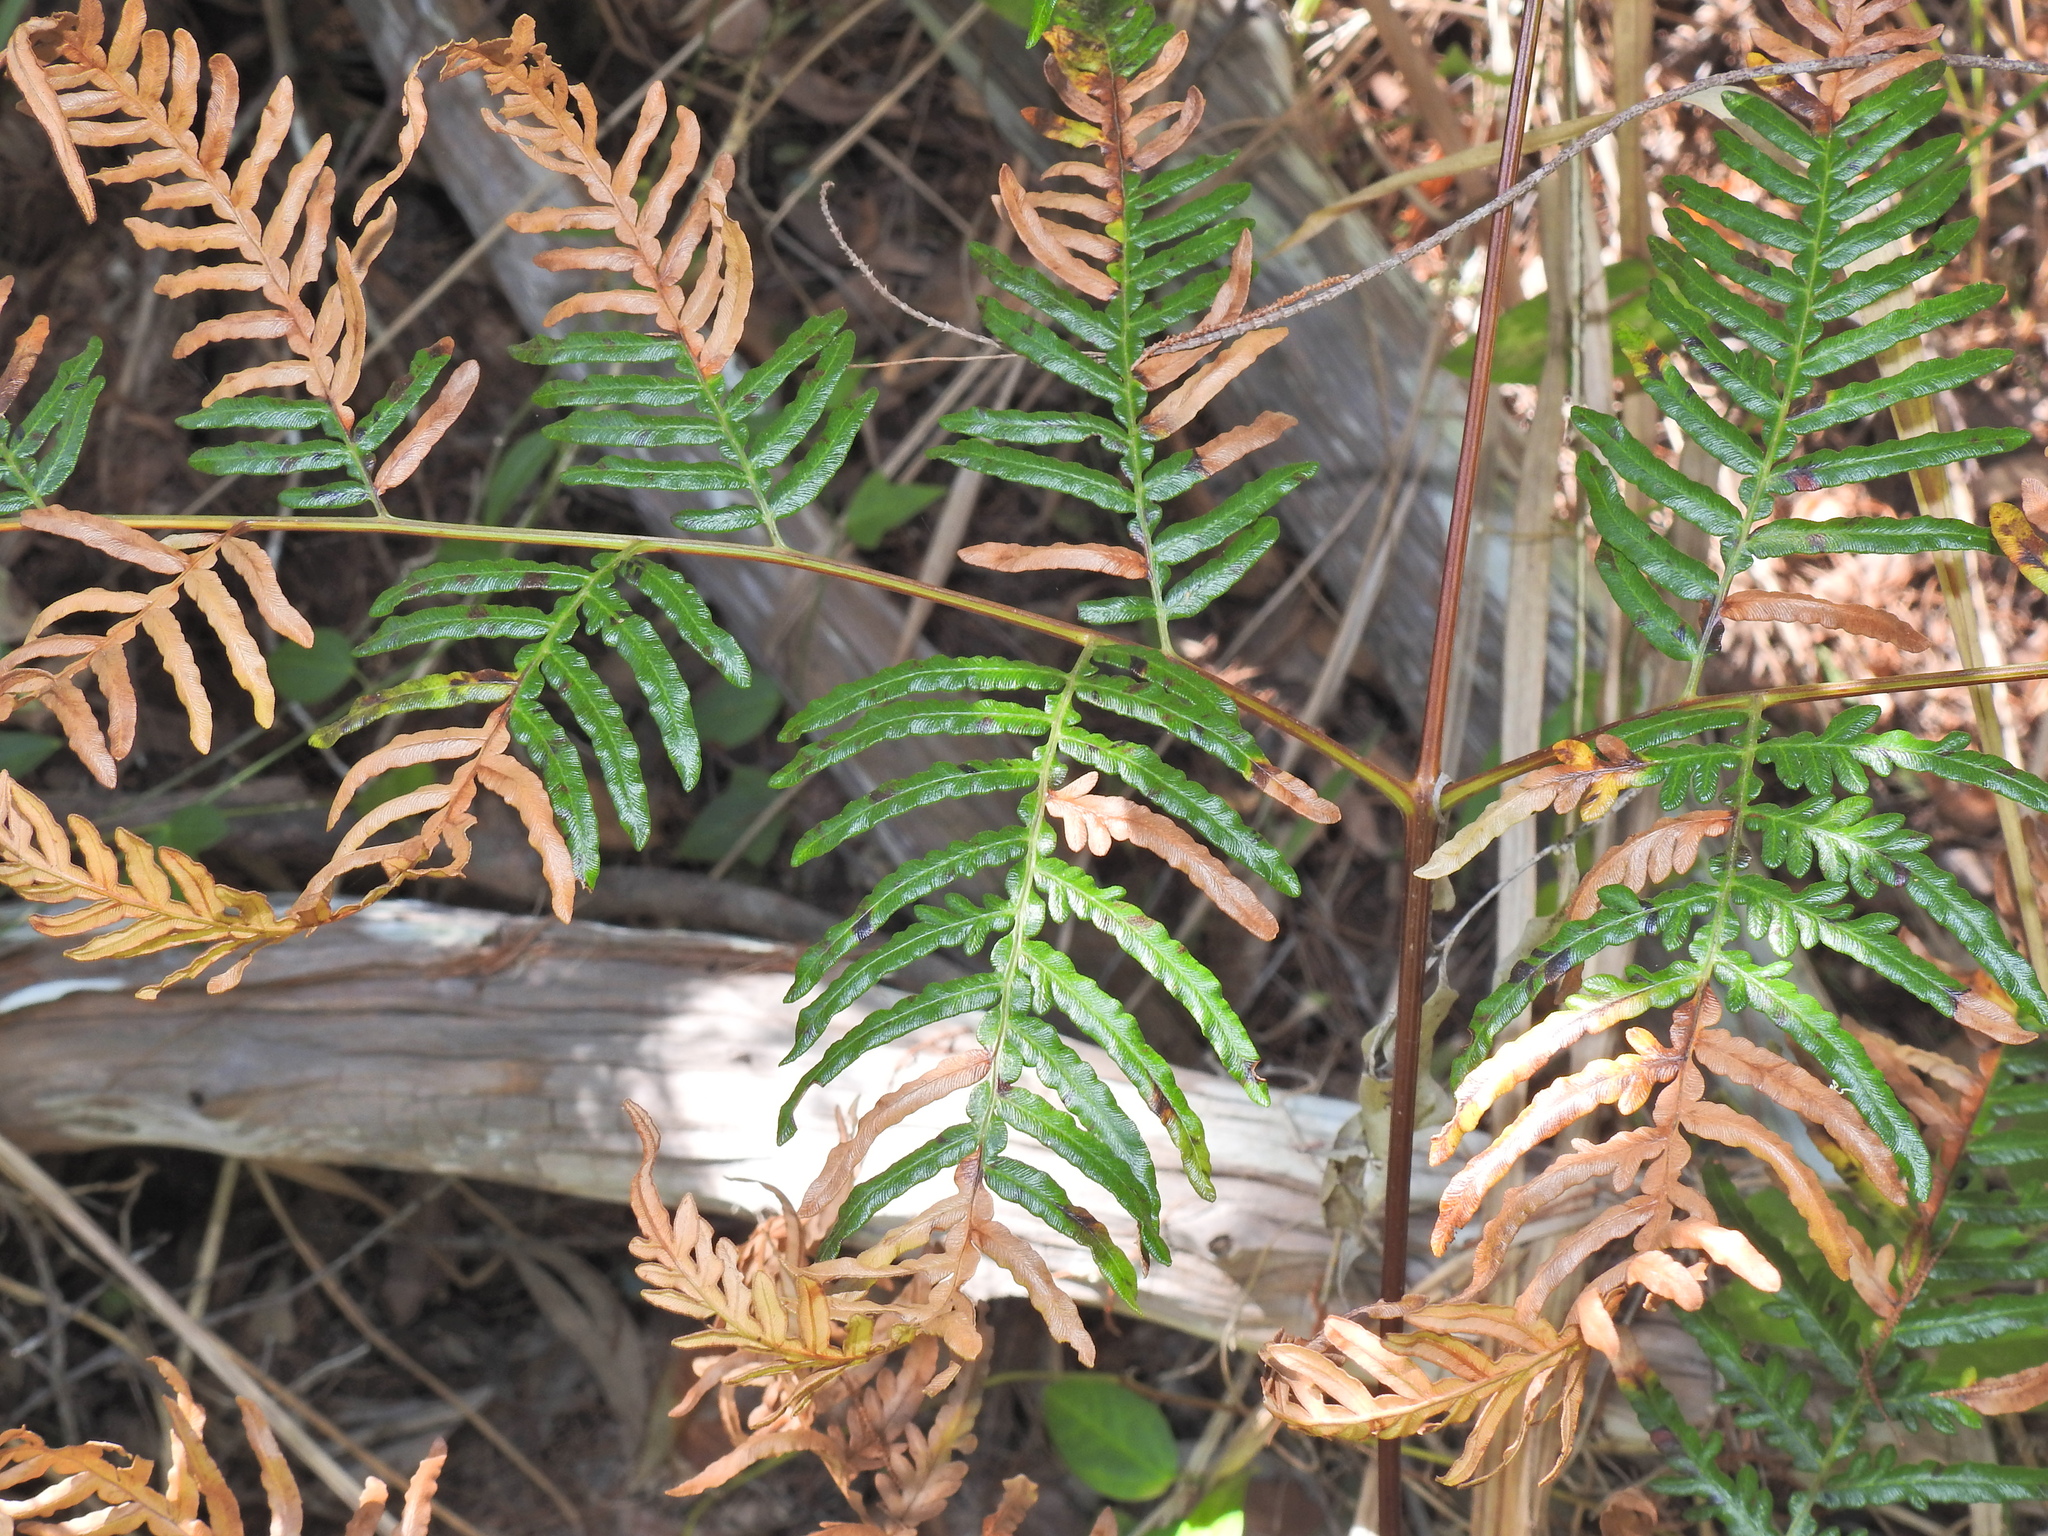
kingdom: Plantae
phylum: Tracheophyta
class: Polypodiopsida
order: Polypodiales
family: Dennstaedtiaceae
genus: Pteridium
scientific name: Pteridium esculentum
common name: Bracken fern
